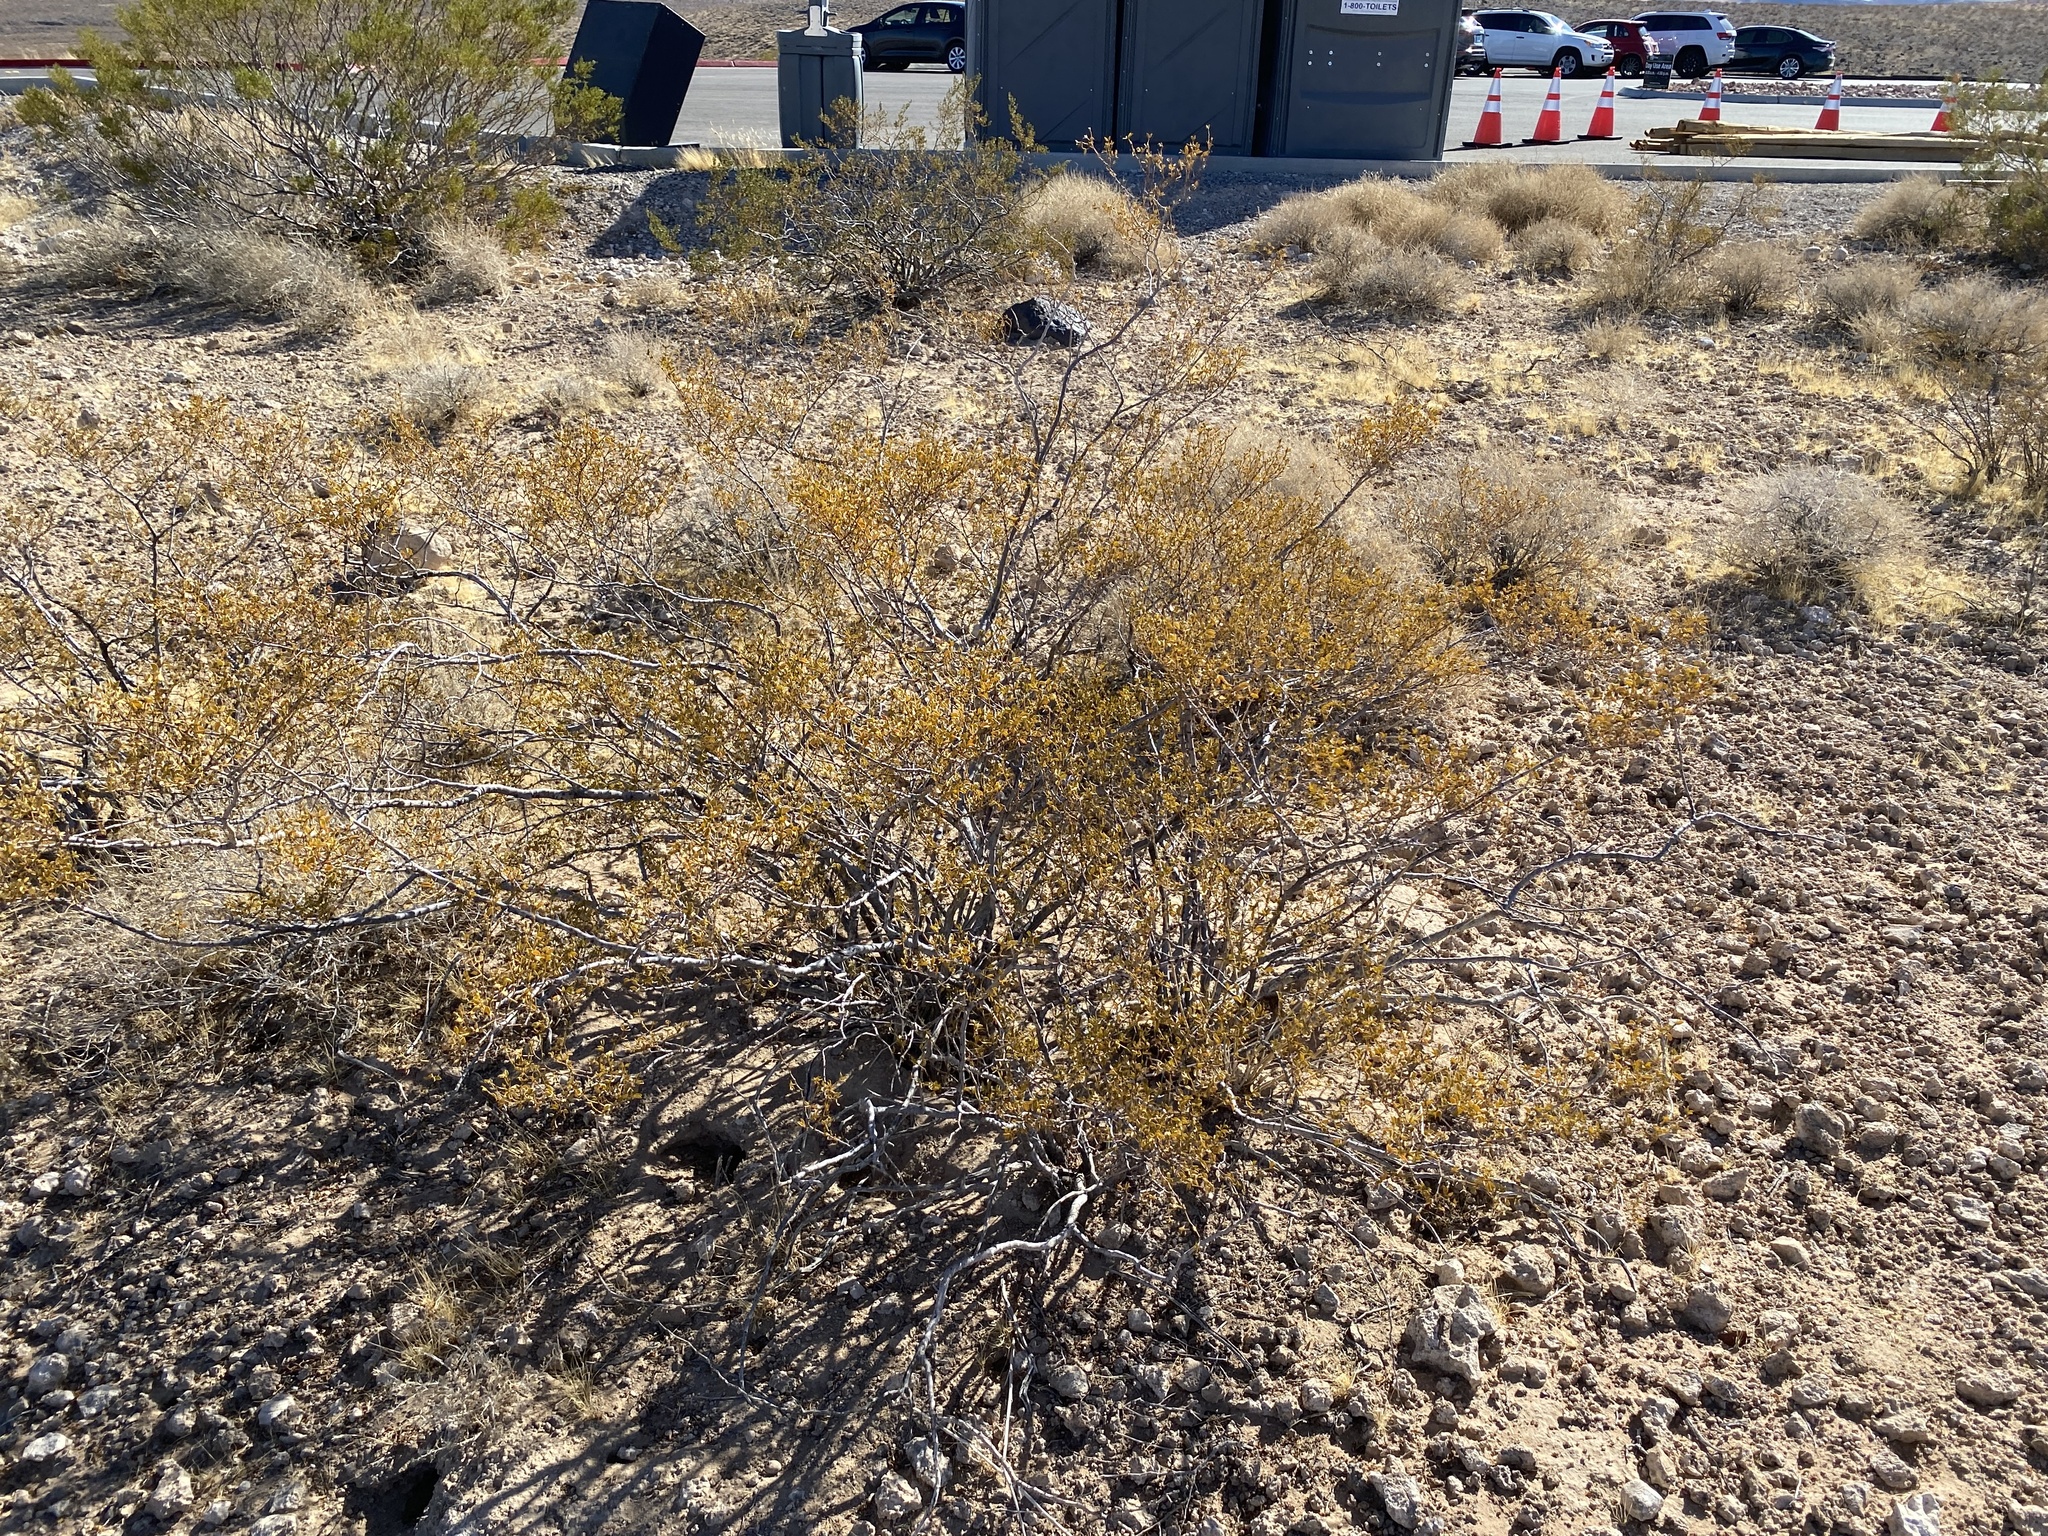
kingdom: Plantae
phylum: Tracheophyta
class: Magnoliopsida
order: Zygophyllales
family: Zygophyllaceae
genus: Larrea
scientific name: Larrea tridentata
